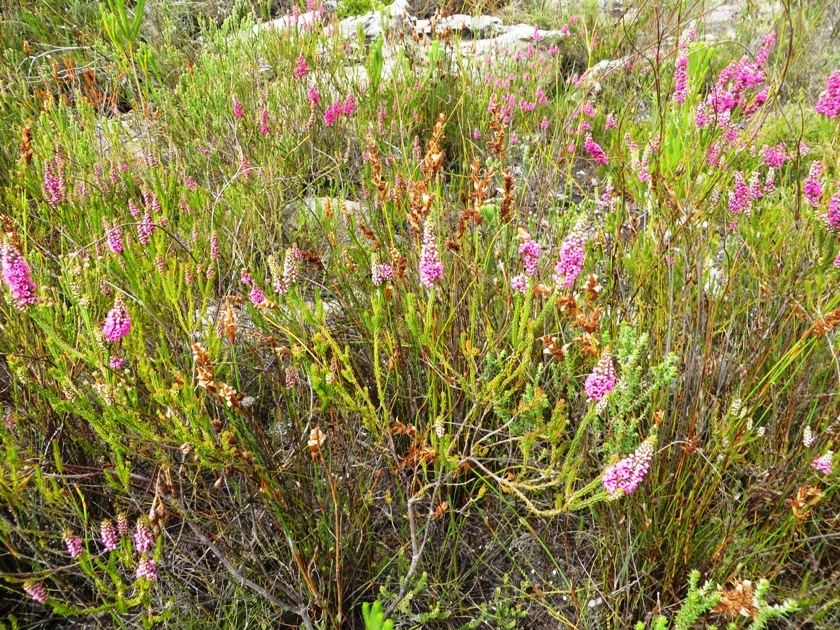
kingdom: Plantae
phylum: Tracheophyta
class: Magnoliopsida
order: Ericales
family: Ericaceae
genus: Erica
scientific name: Erica pulchella
